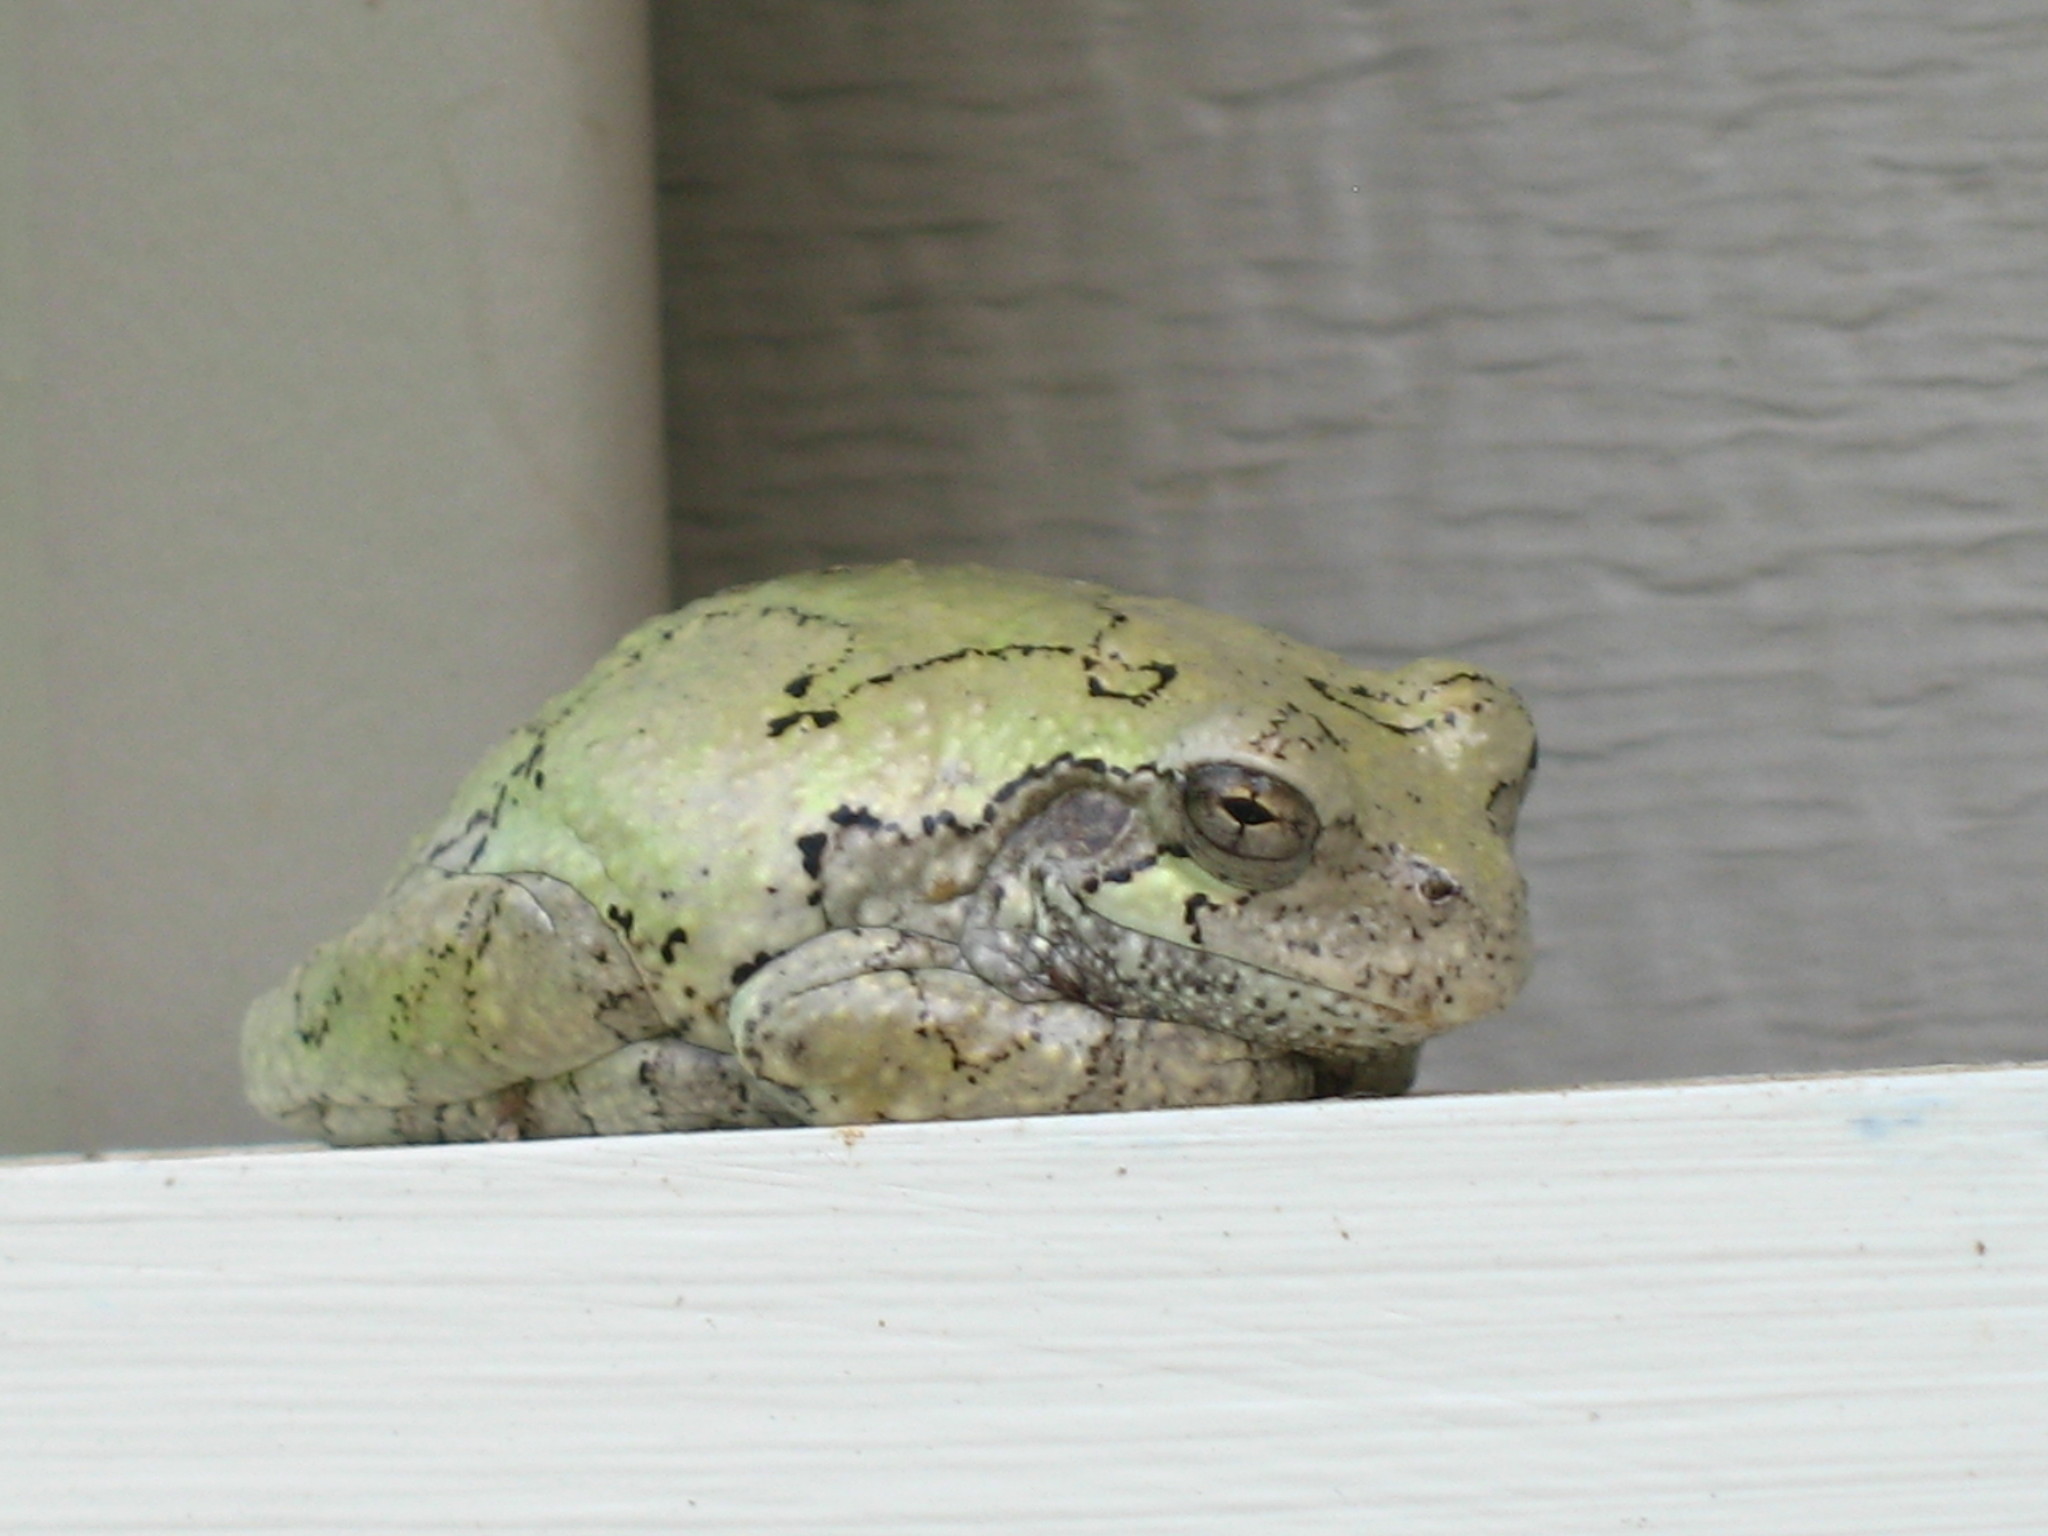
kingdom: Animalia
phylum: Chordata
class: Amphibia
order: Anura
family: Hylidae
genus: Dryophytes
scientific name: Dryophytes chrysoscelis
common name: Cope's gray treefrog
